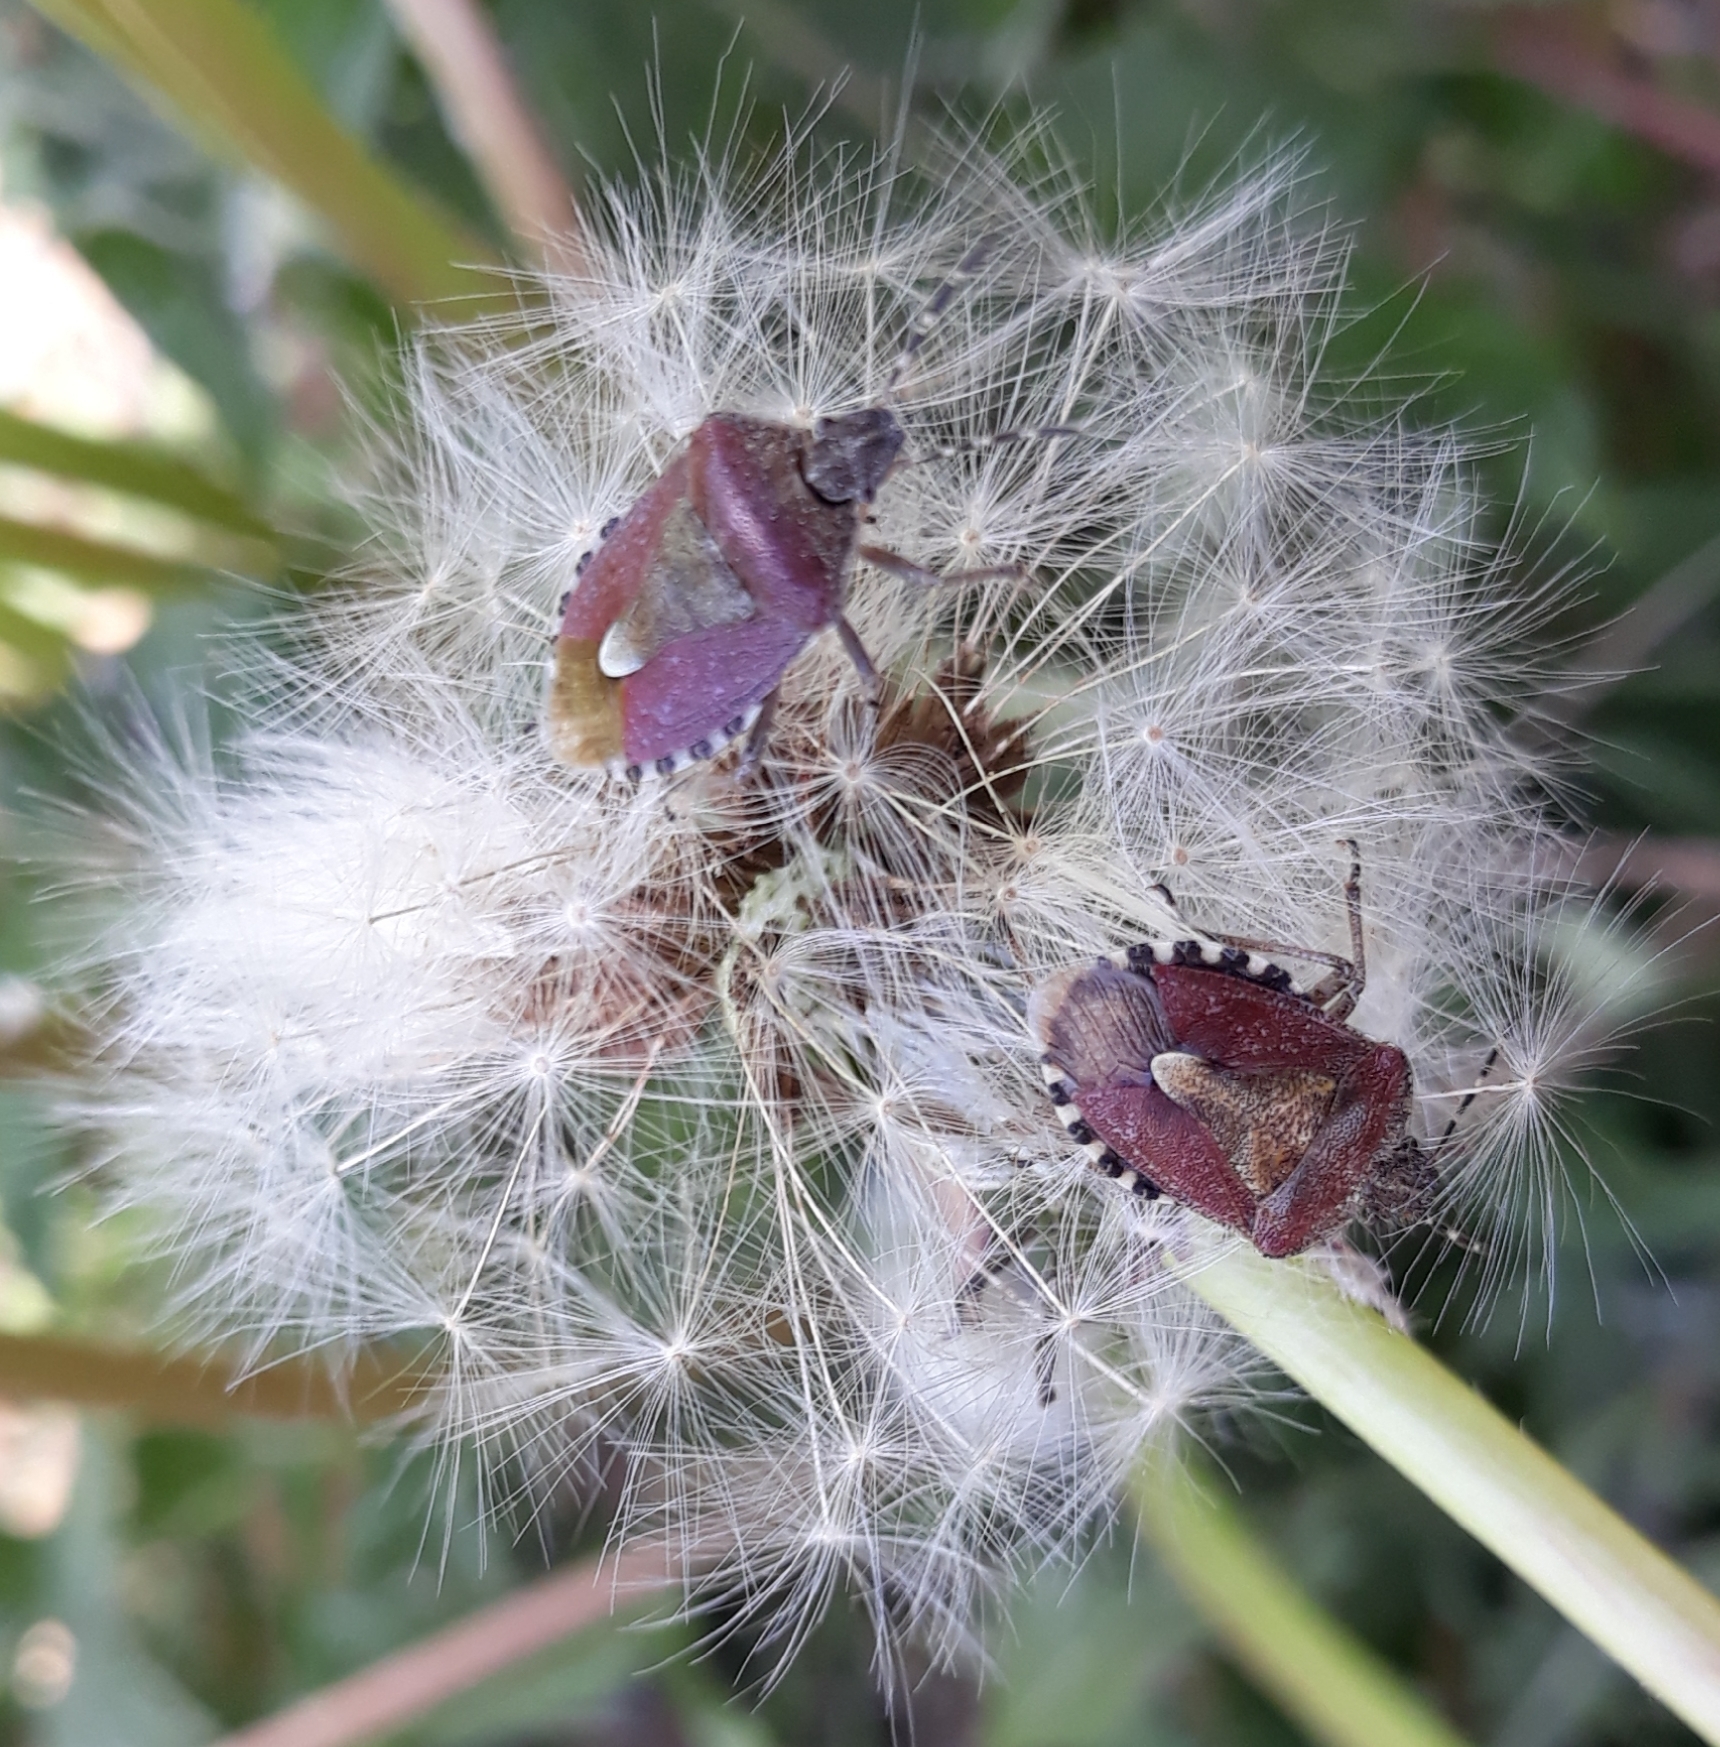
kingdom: Animalia
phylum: Arthropoda
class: Insecta
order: Hemiptera
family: Pentatomidae
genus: Dolycoris
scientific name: Dolycoris baccarum
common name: Sloe bug
